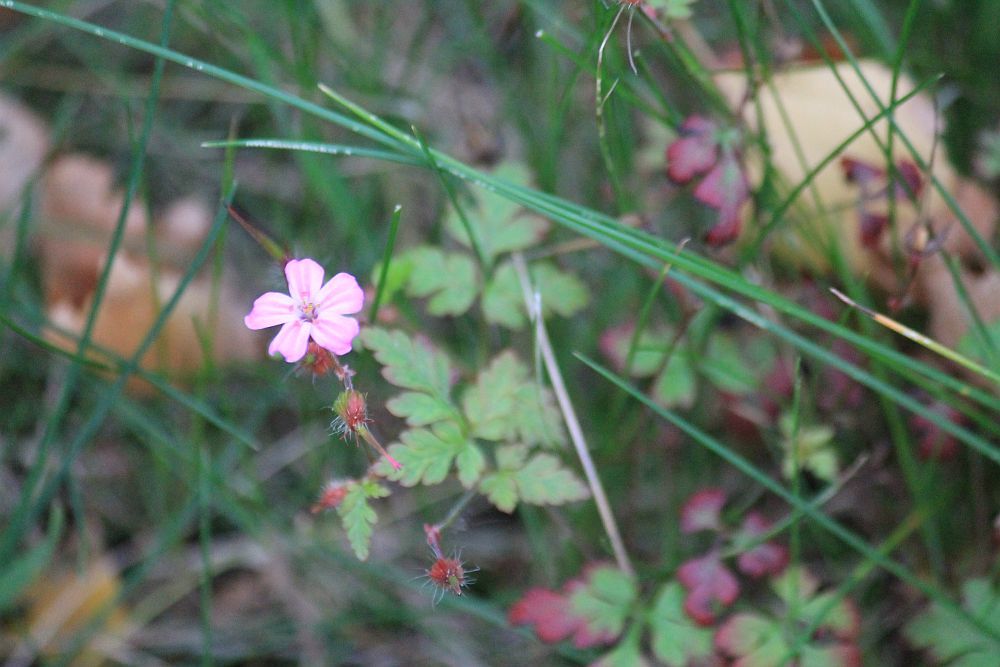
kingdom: Plantae
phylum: Tracheophyta
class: Magnoliopsida
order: Geraniales
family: Geraniaceae
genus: Geranium
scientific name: Geranium robertianum
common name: Herb-robert
